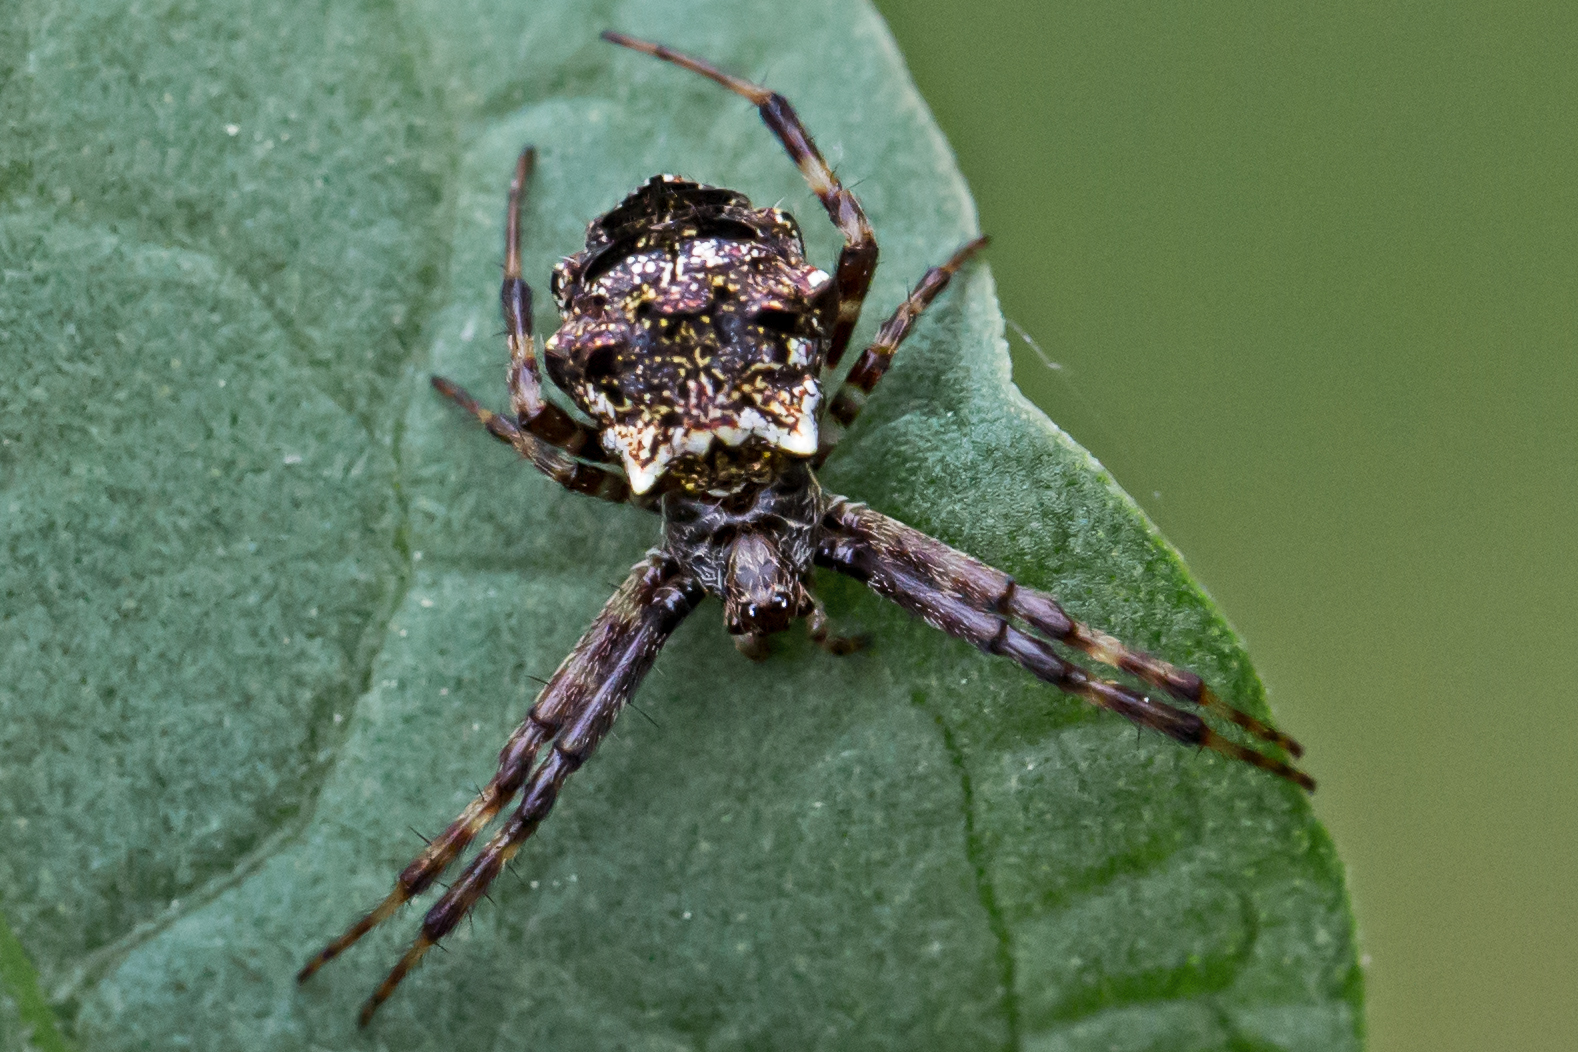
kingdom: Animalia
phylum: Arthropoda
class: Arachnida
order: Araneae
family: Araneidae
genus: Gea
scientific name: Gea heptagon
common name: Orb weavers
